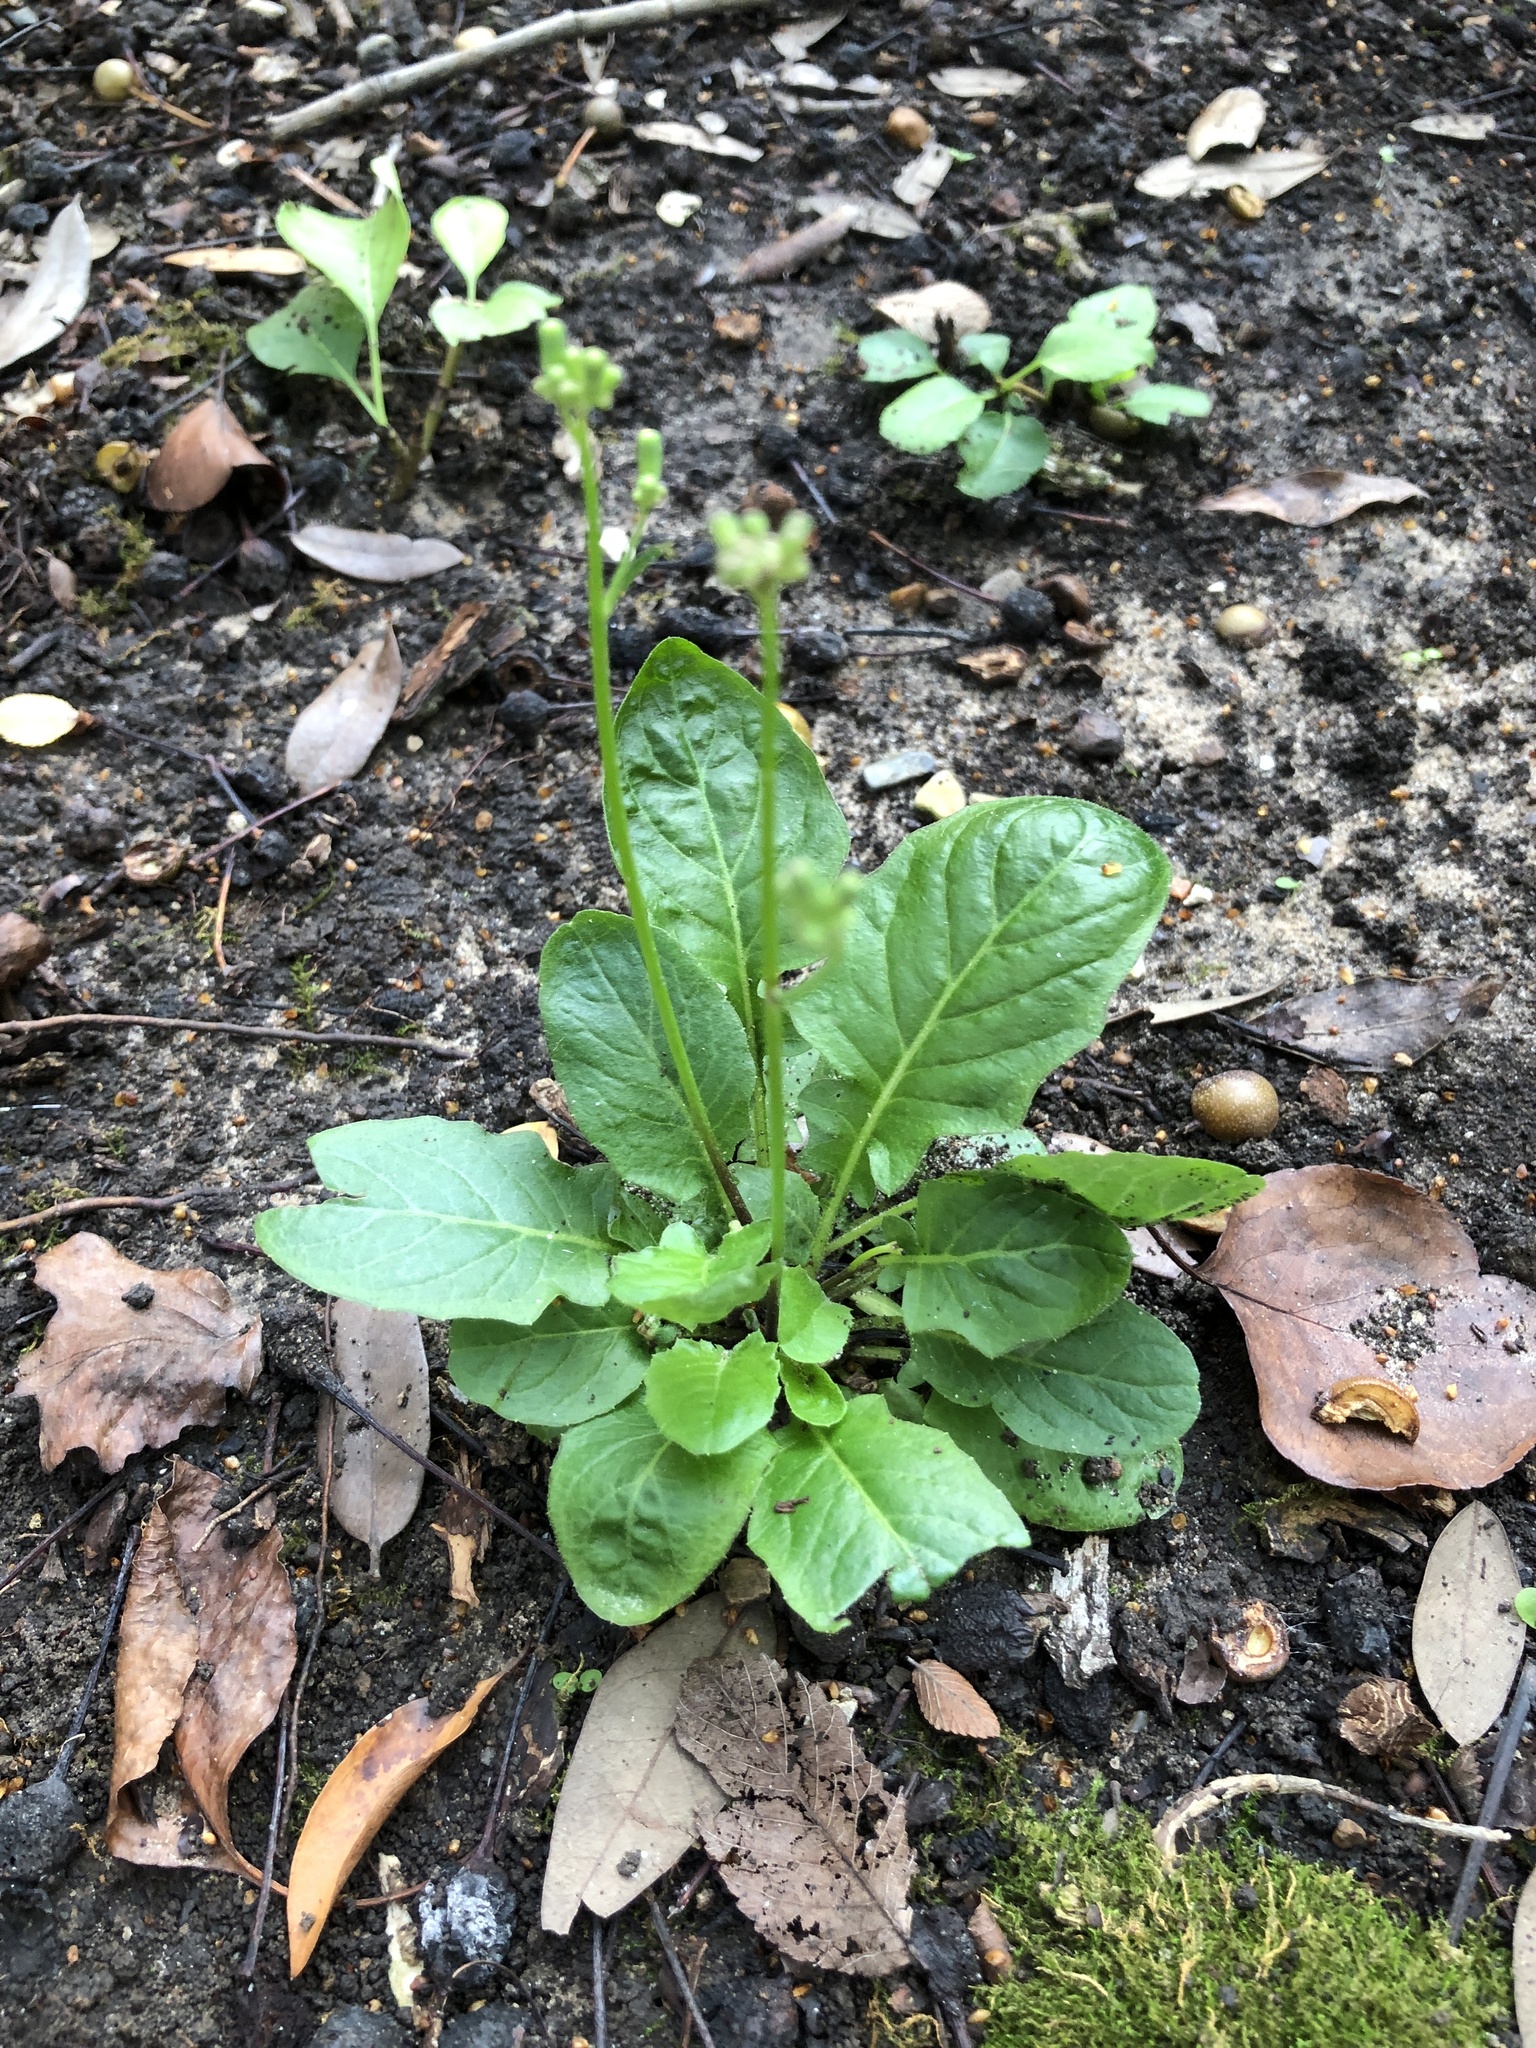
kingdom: Plantae
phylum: Tracheophyta
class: Magnoliopsida
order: Asterales
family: Asteraceae
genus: Youngia
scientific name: Youngia japonica
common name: Oriental false hawksbeard
